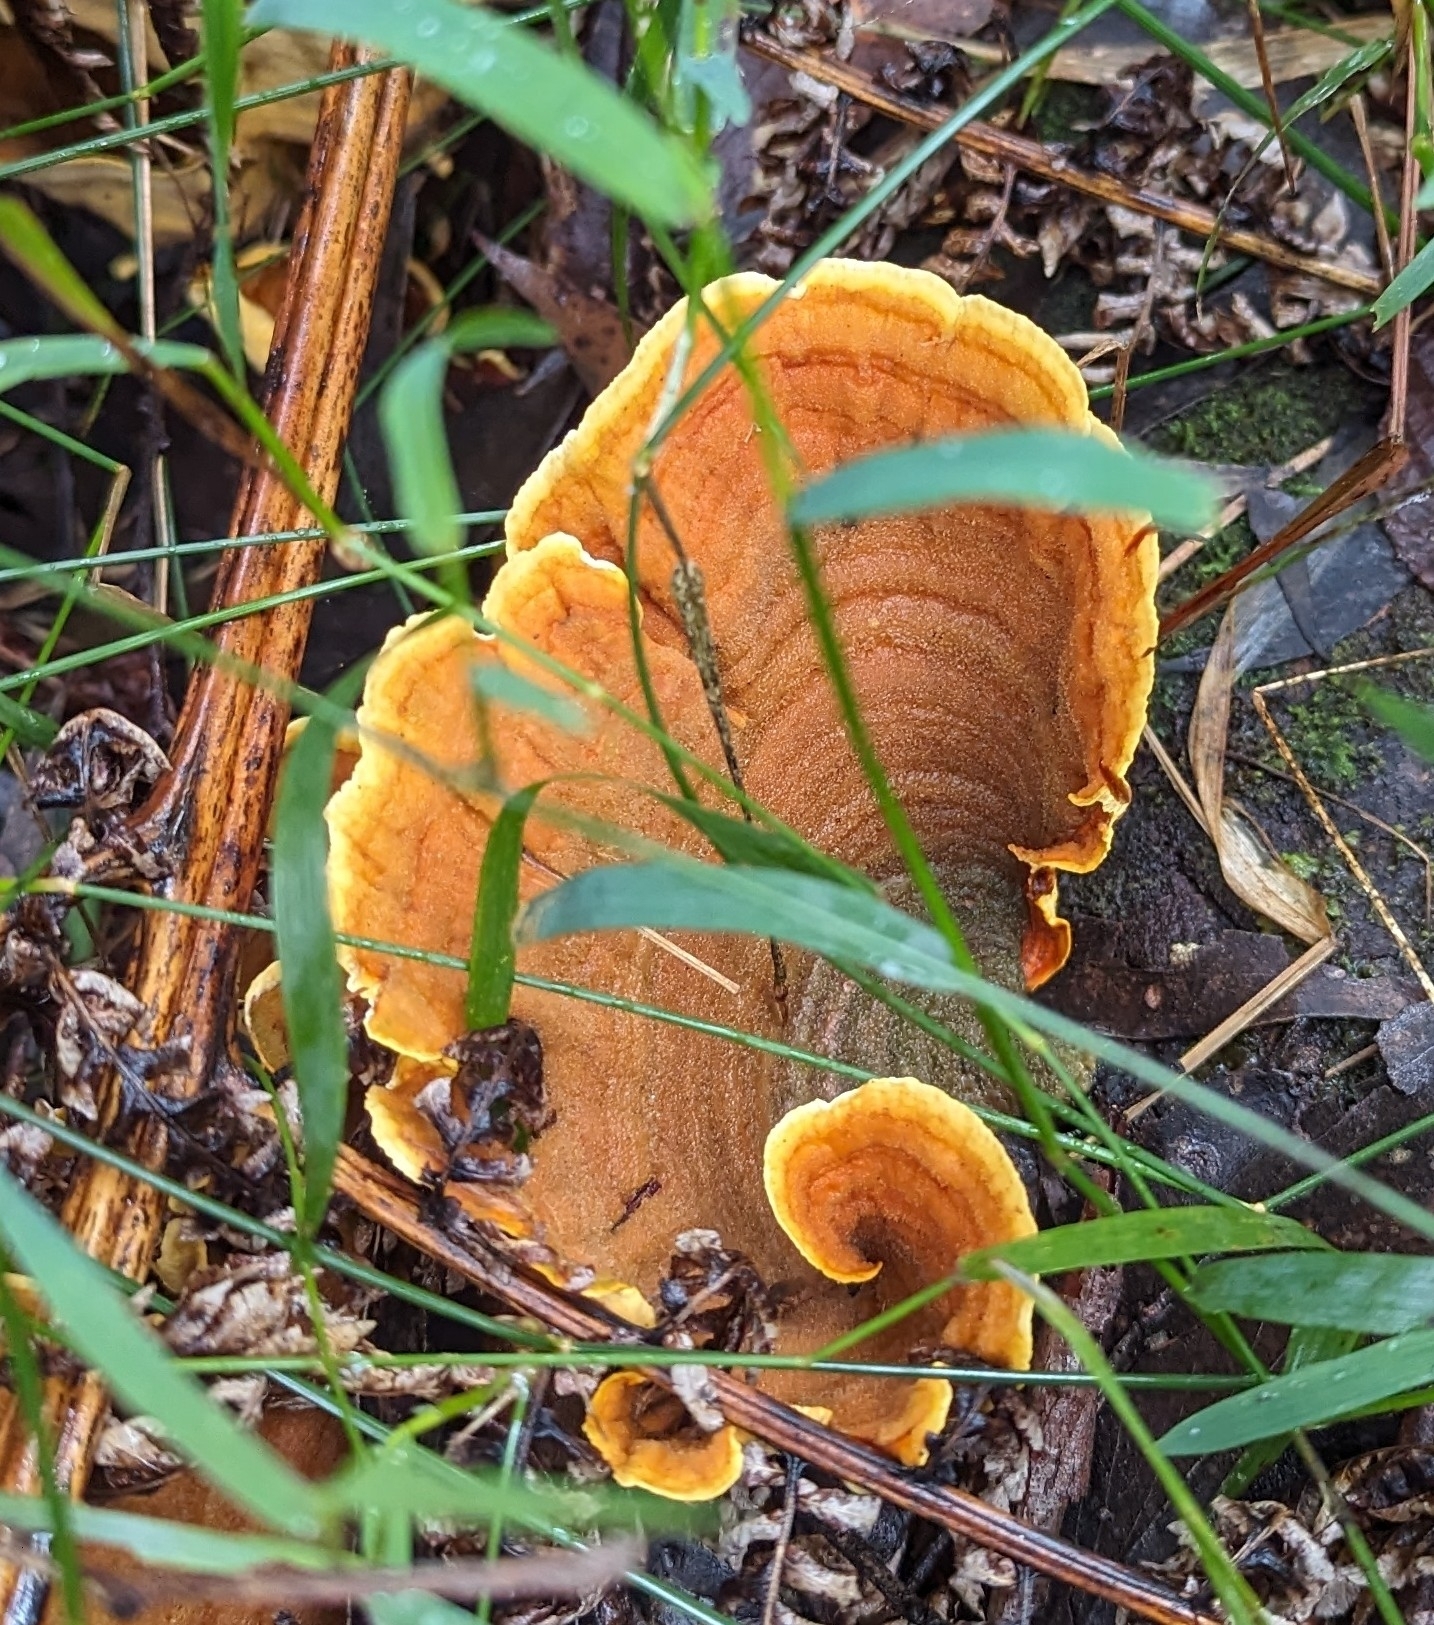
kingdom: Fungi
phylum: Basidiomycota
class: Agaricomycetes
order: Russulales
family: Stereaceae
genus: Stereum
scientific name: Stereum ostrea
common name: False turkeytail
